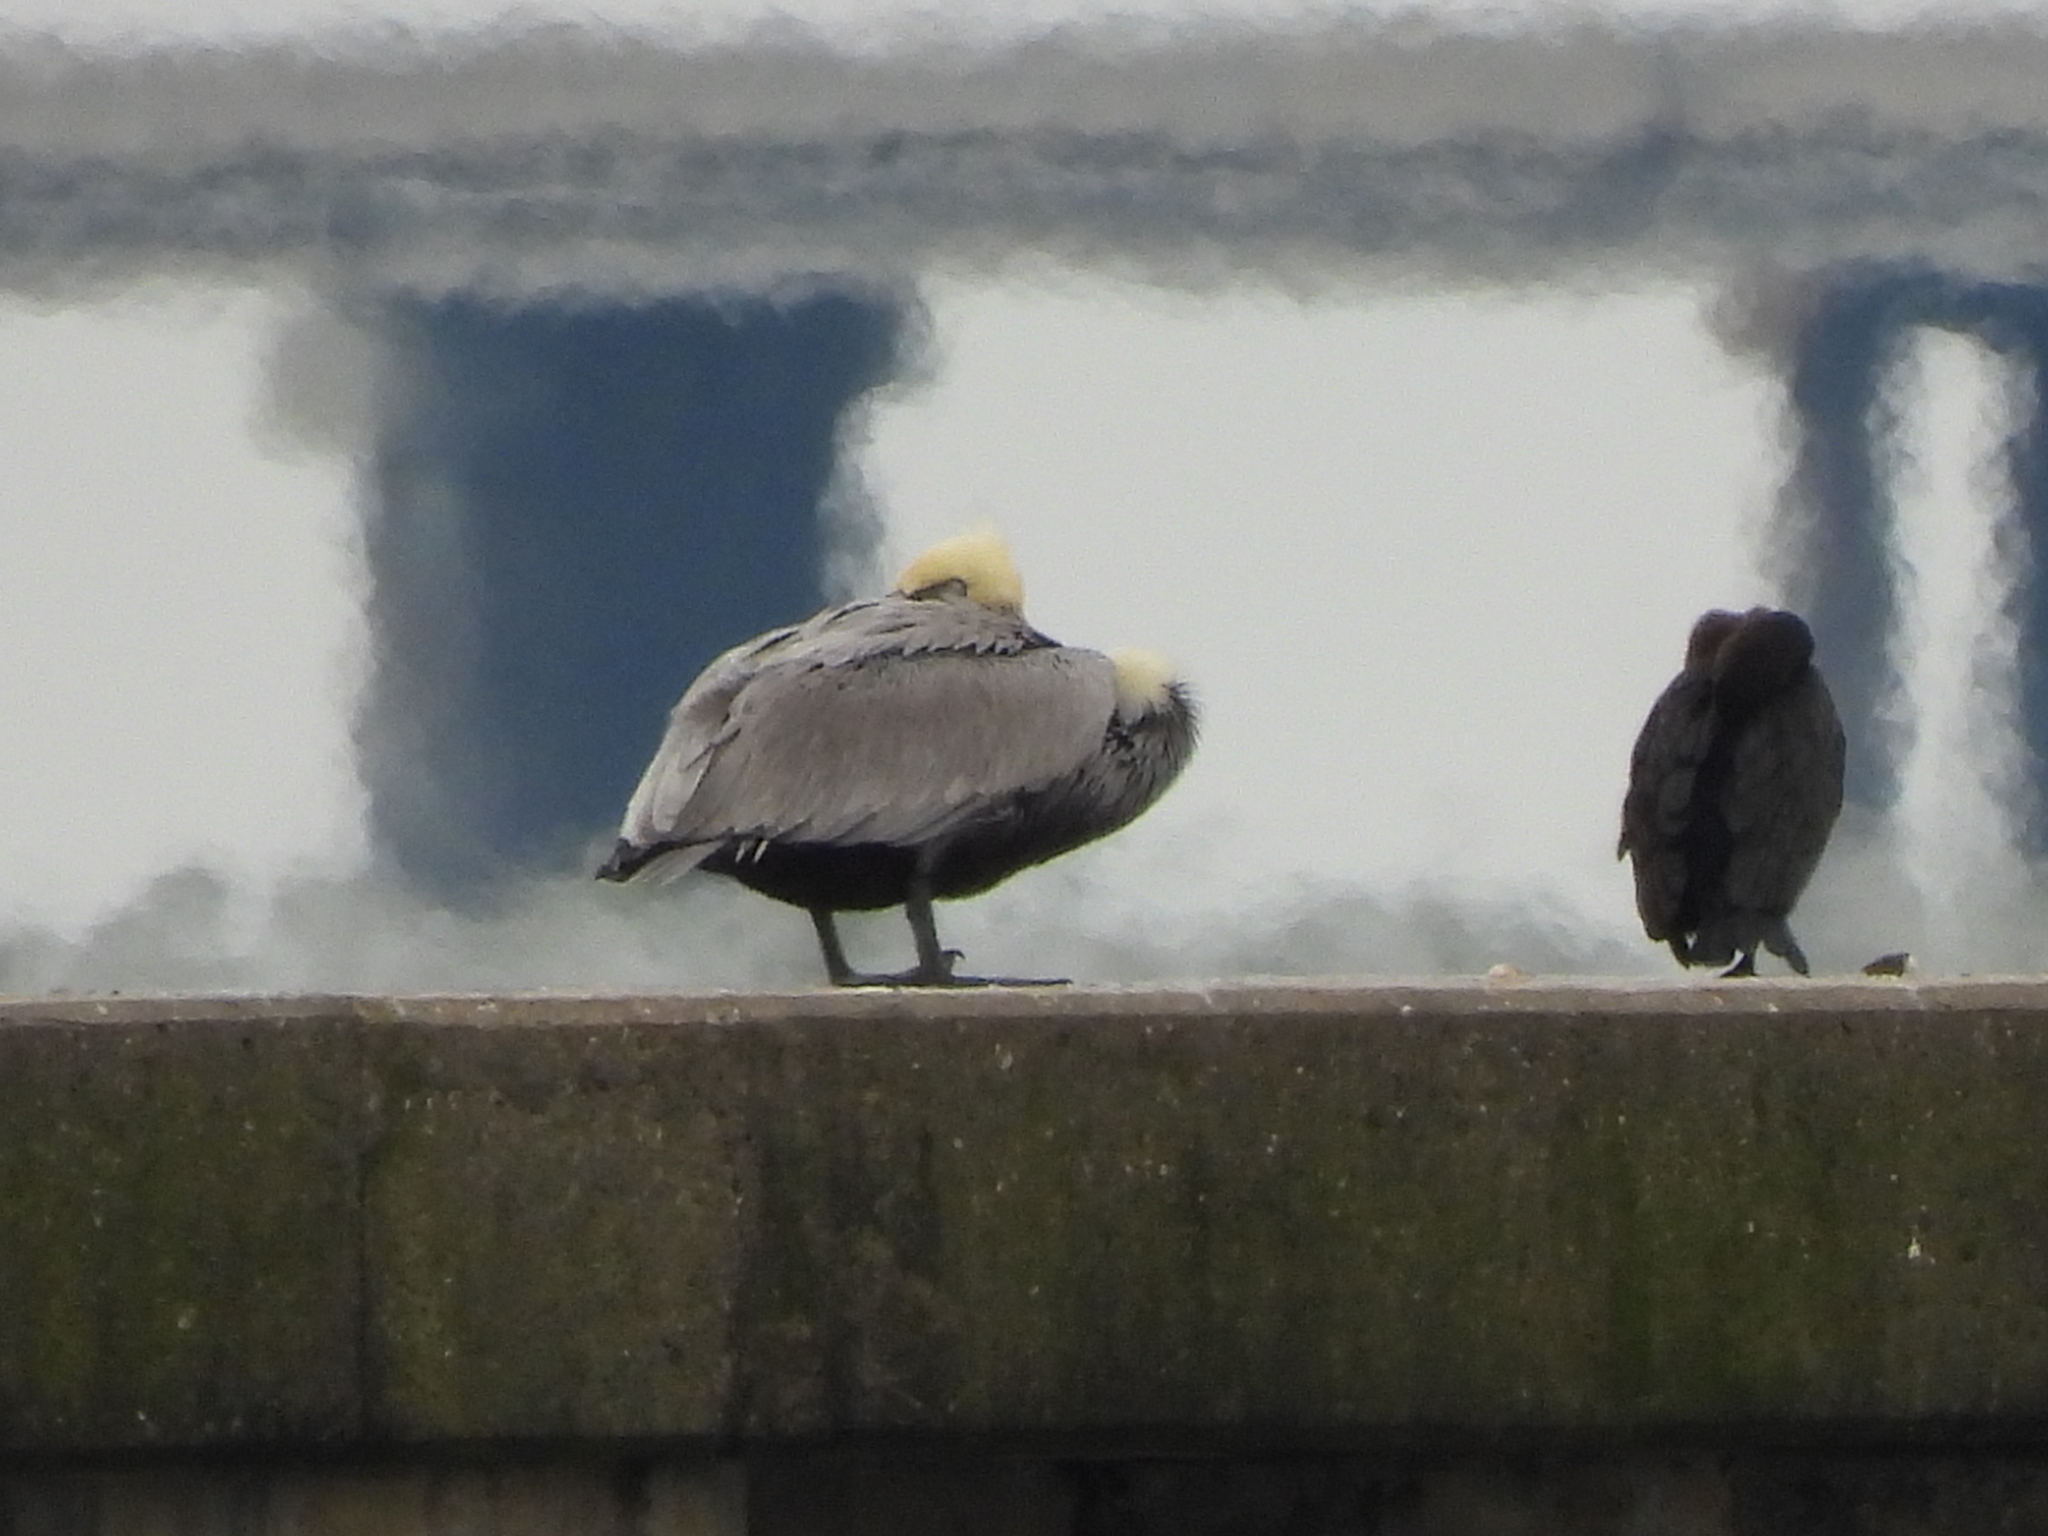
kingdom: Animalia
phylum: Chordata
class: Aves
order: Pelecaniformes
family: Pelecanidae
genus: Pelecanus
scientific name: Pelecanus occidentalis
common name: Brown pelican
